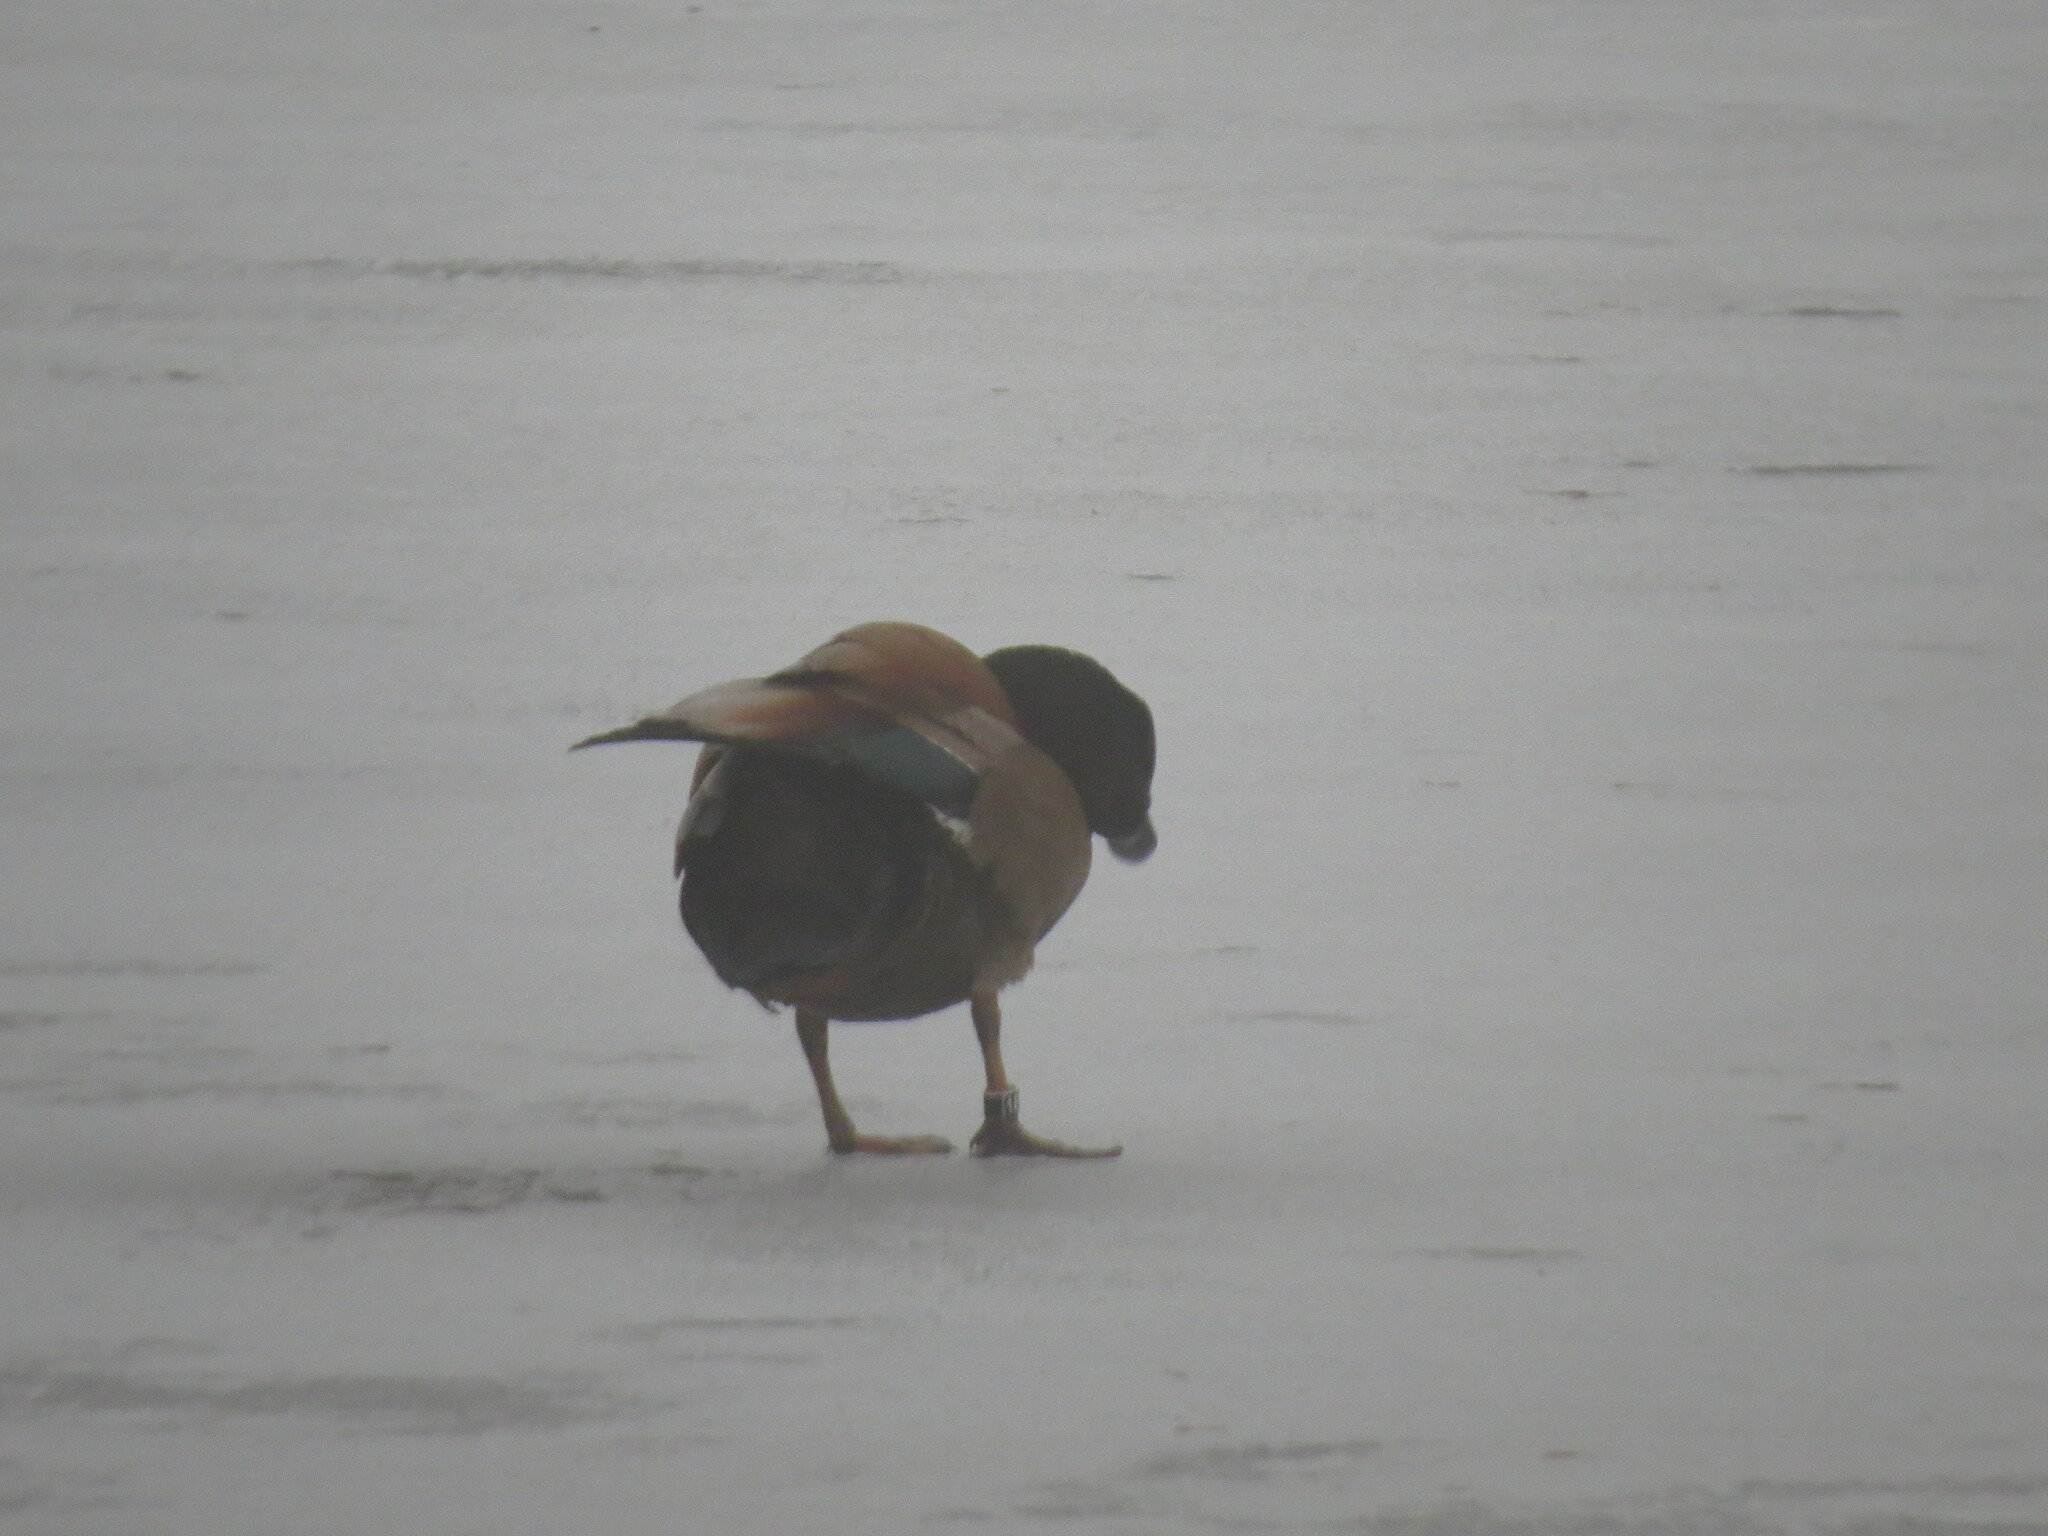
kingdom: Animalia
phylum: Chordata
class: Aves
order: Anseriformes
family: Anatidae
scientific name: Anatidae
